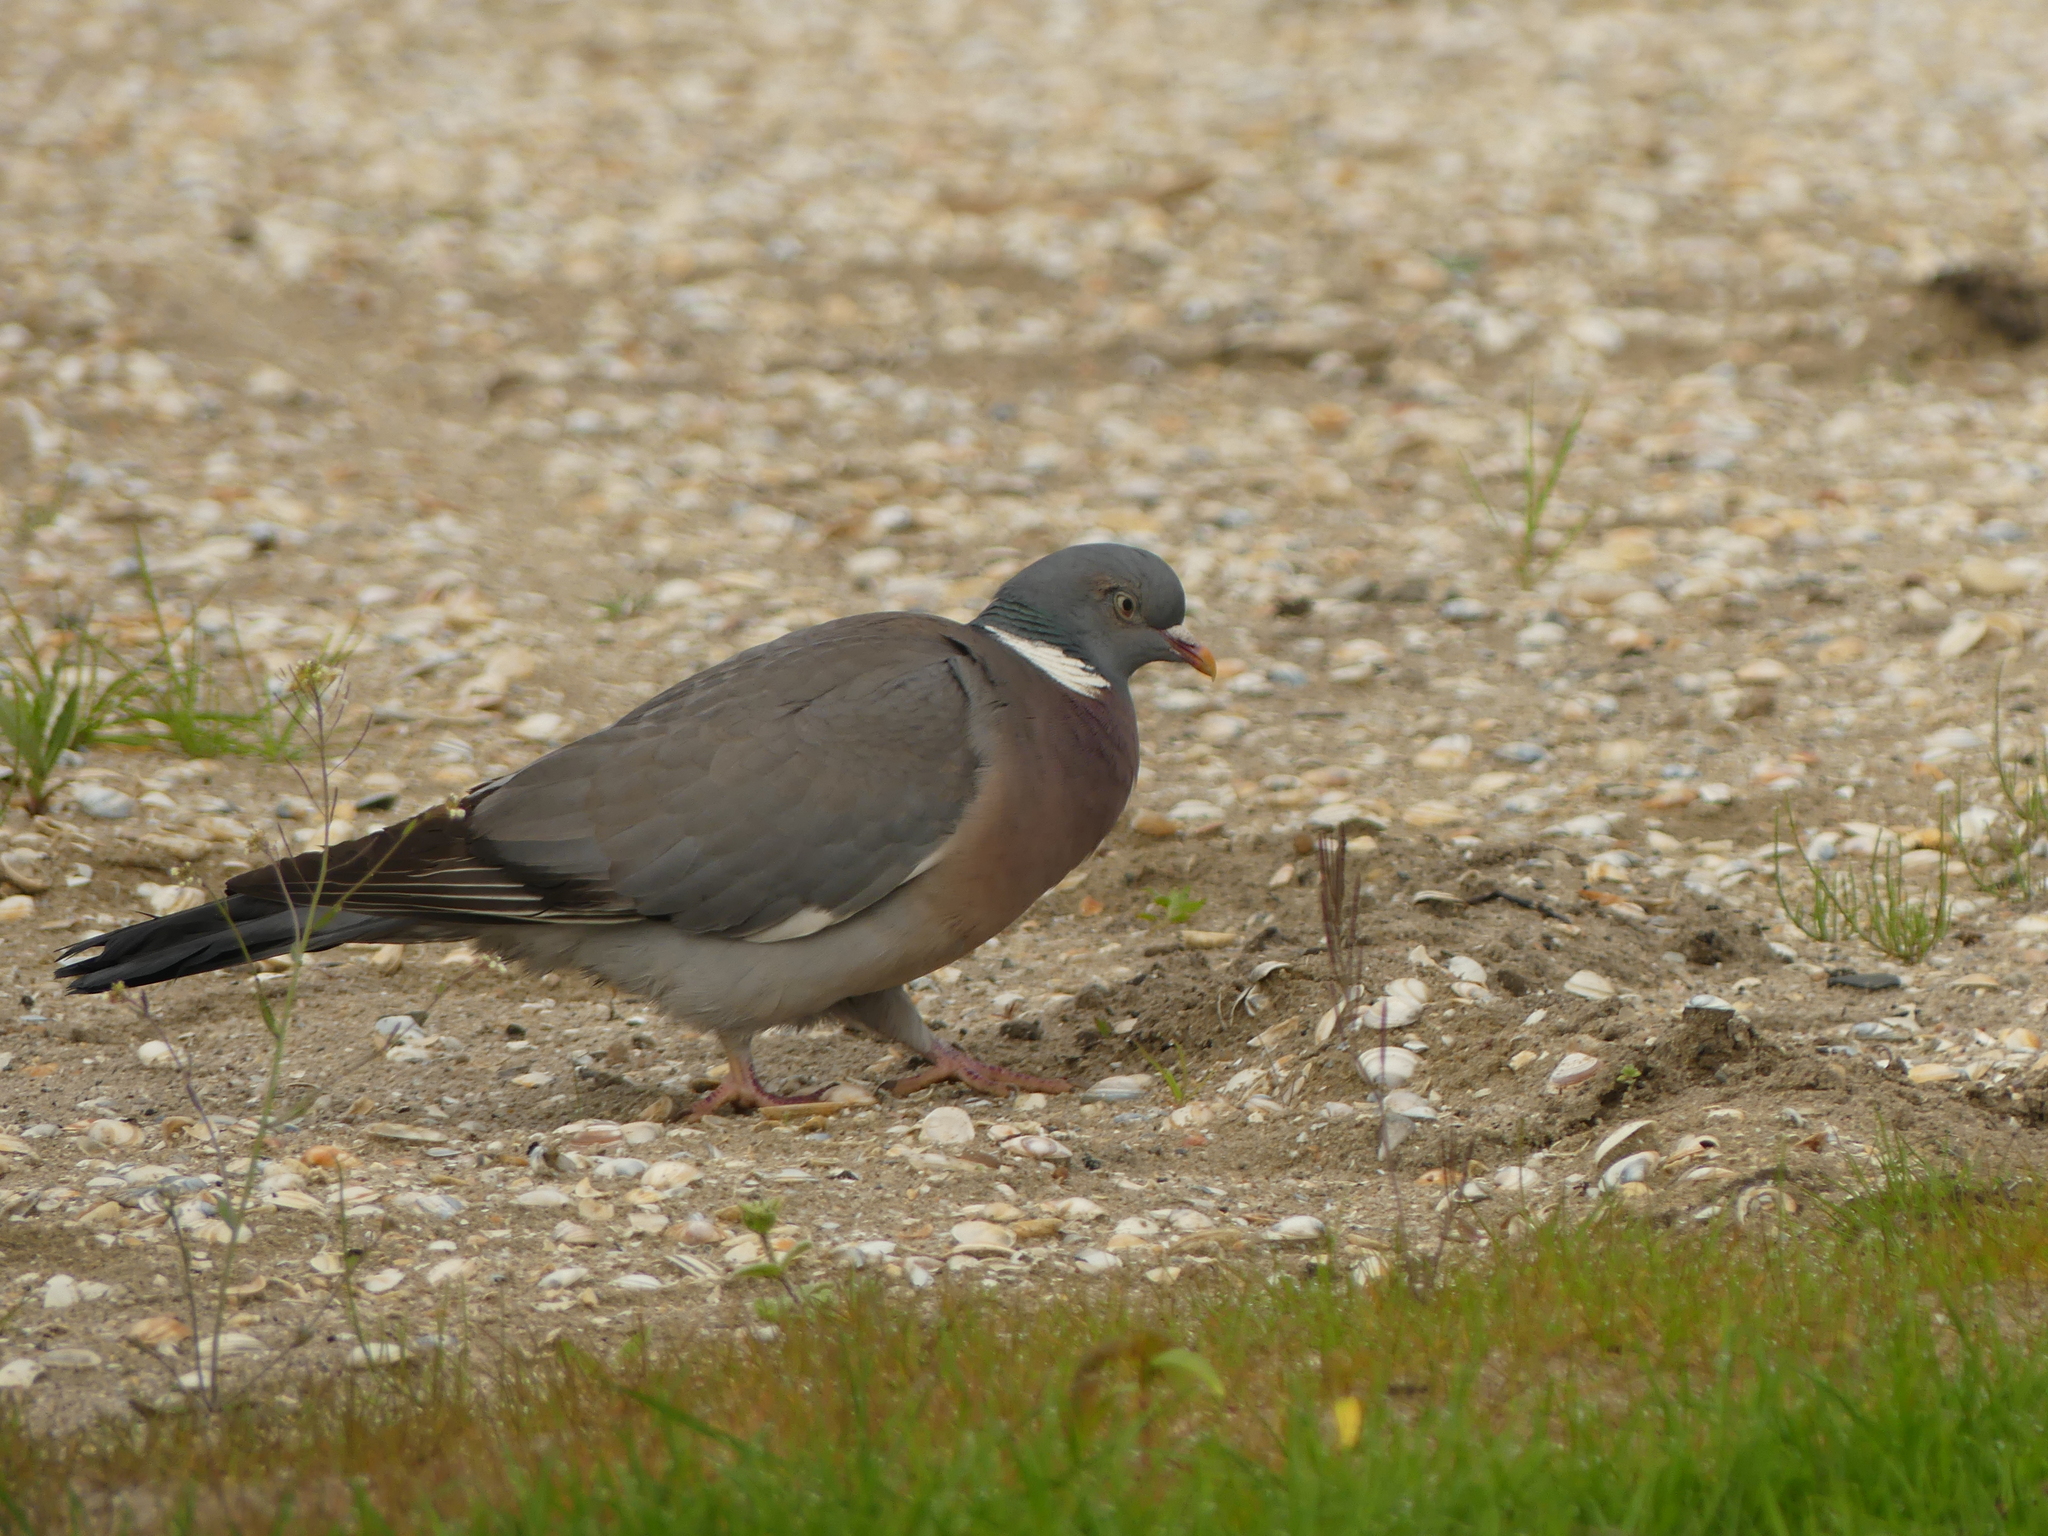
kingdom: Animalia
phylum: Chordata
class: Aves
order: Columbiformes
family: Columbidae
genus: Columba
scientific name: Columba palumbus
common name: Common wood pigeon
